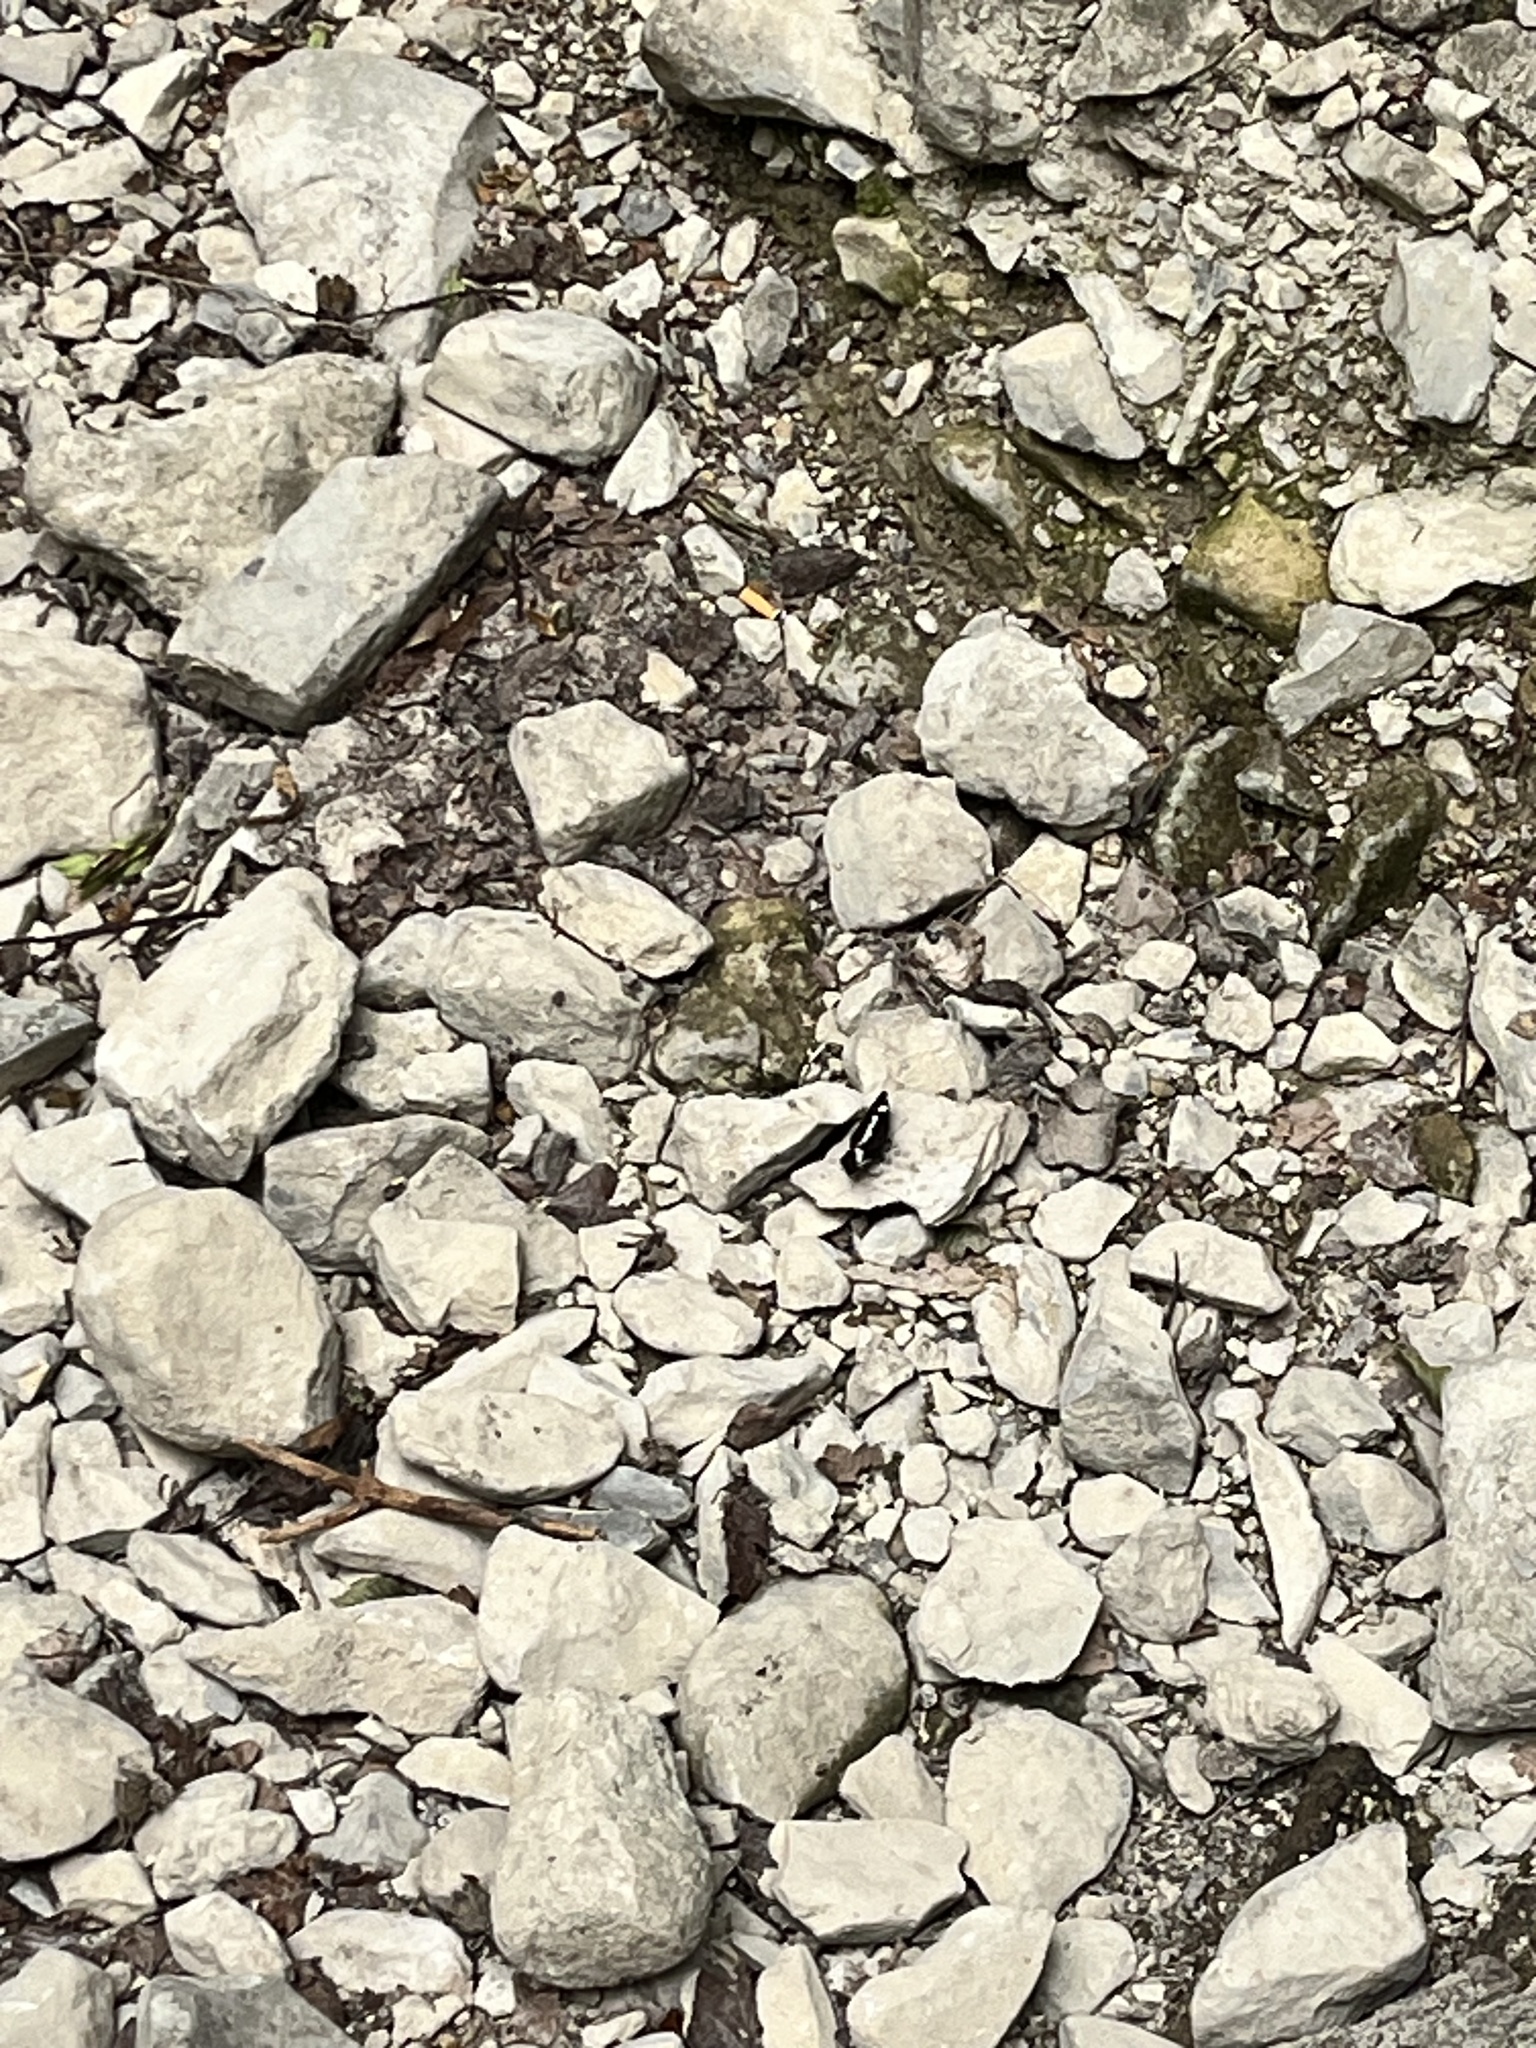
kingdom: Animalia
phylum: Arthropoda
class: Insecta
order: Lepidoptera
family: Nymphalidae
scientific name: Nymphalidae
